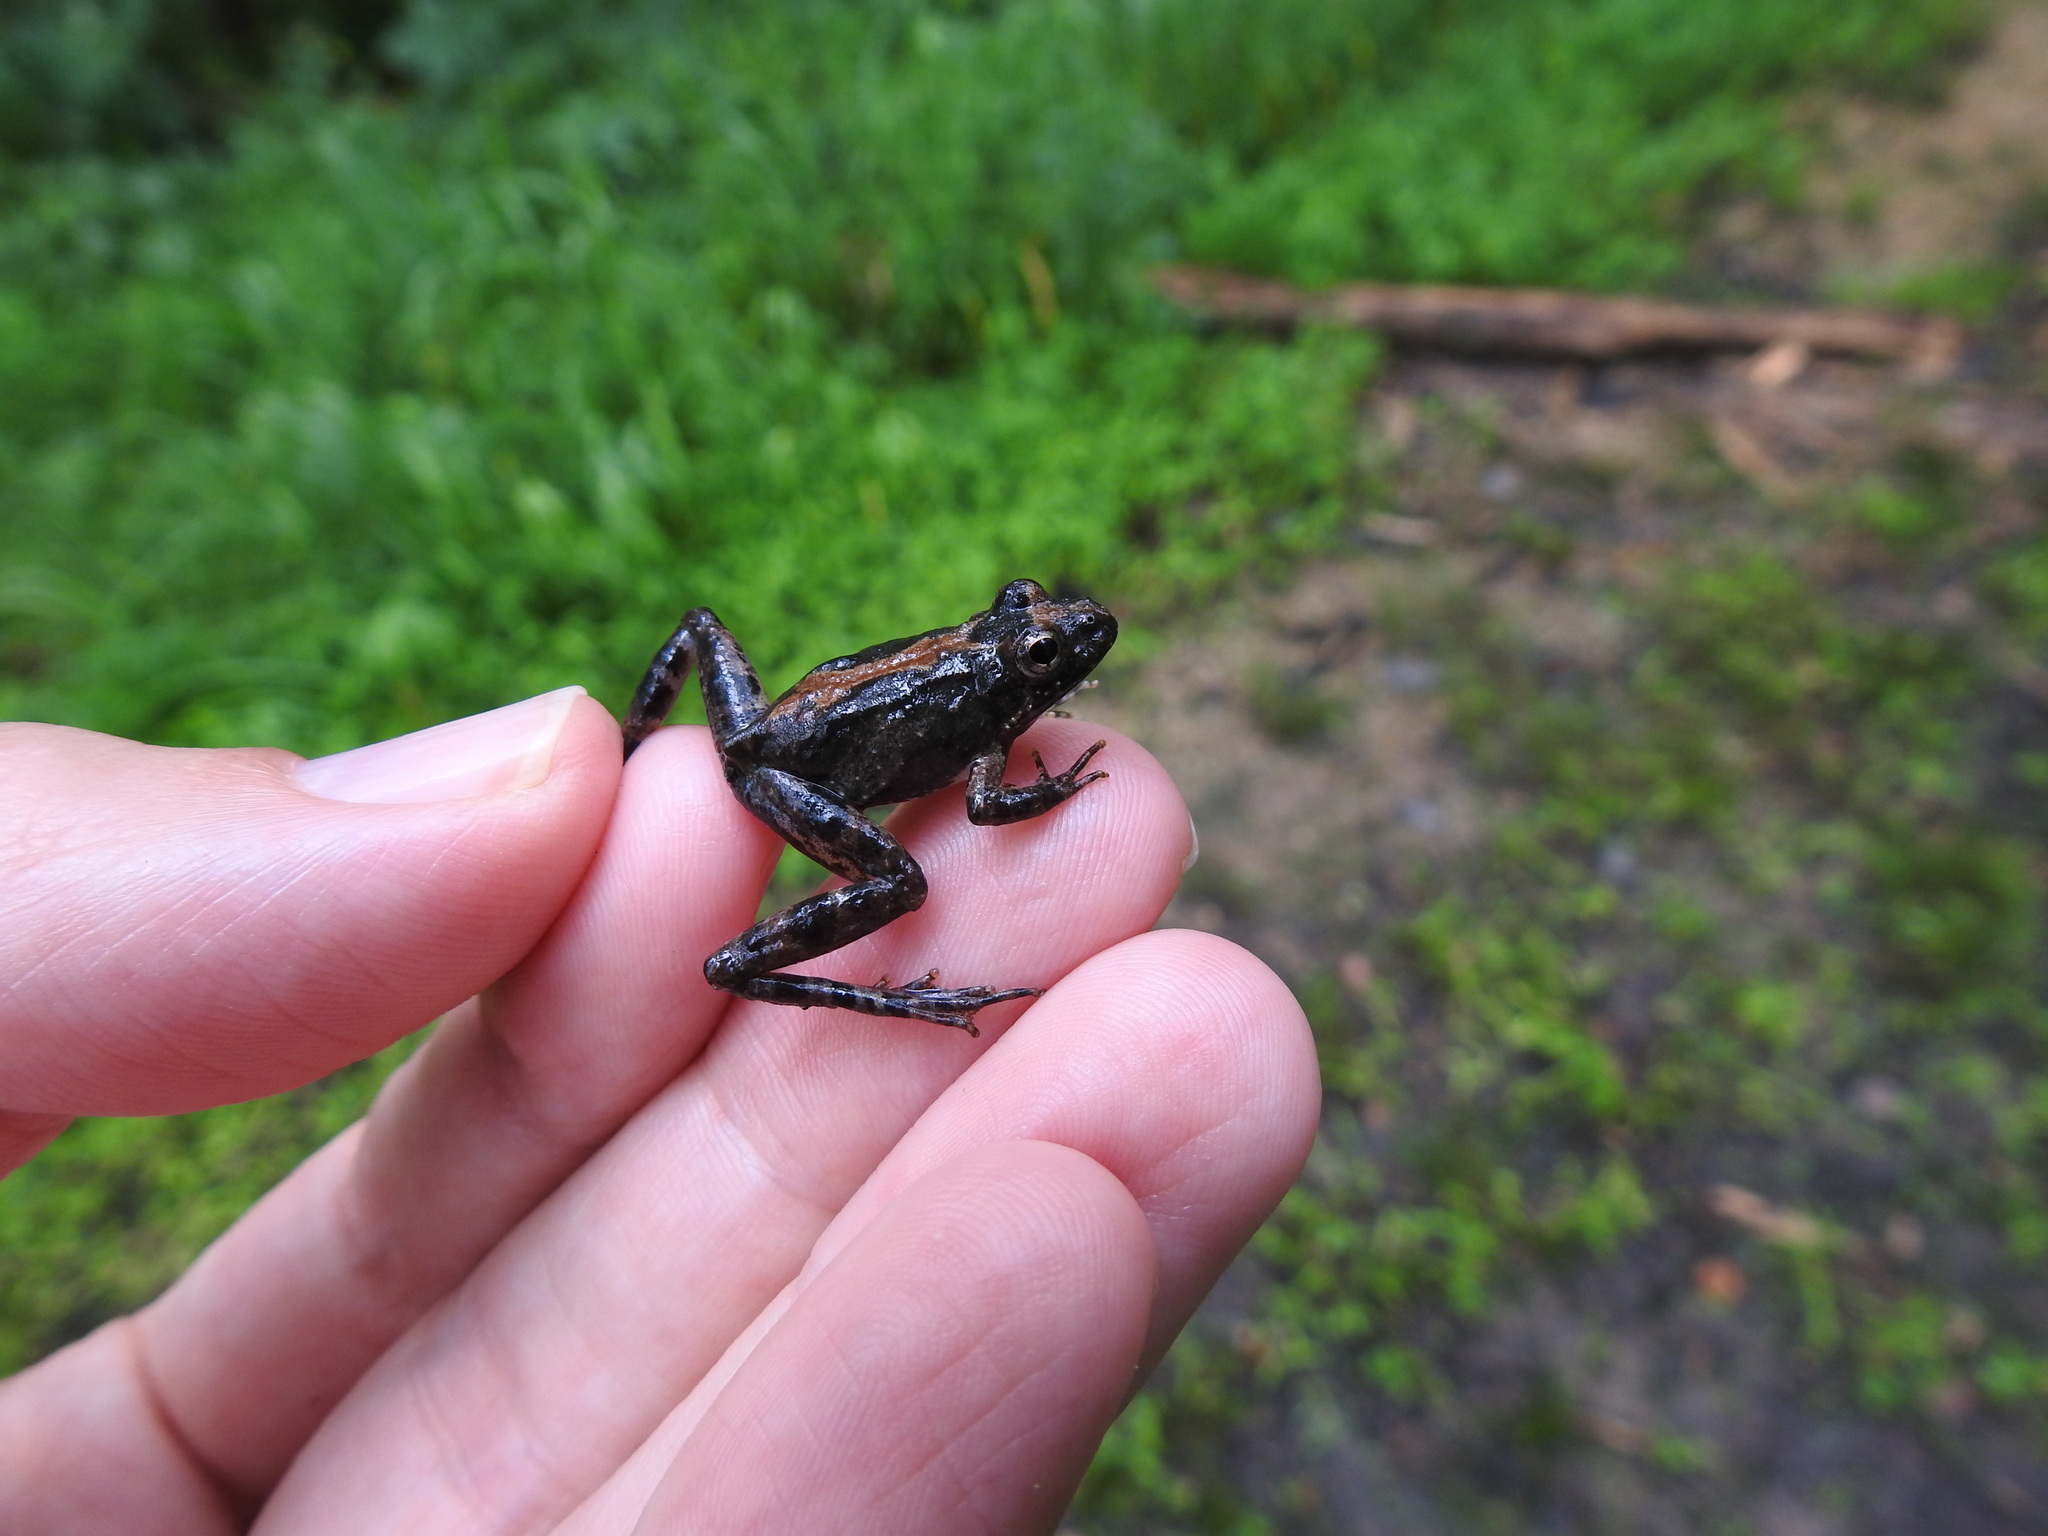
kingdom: Animalia
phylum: Chordata
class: Amphibia
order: Anura
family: Hylidae
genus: Acris
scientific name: Acris crepitans
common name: Northern cricket frog
